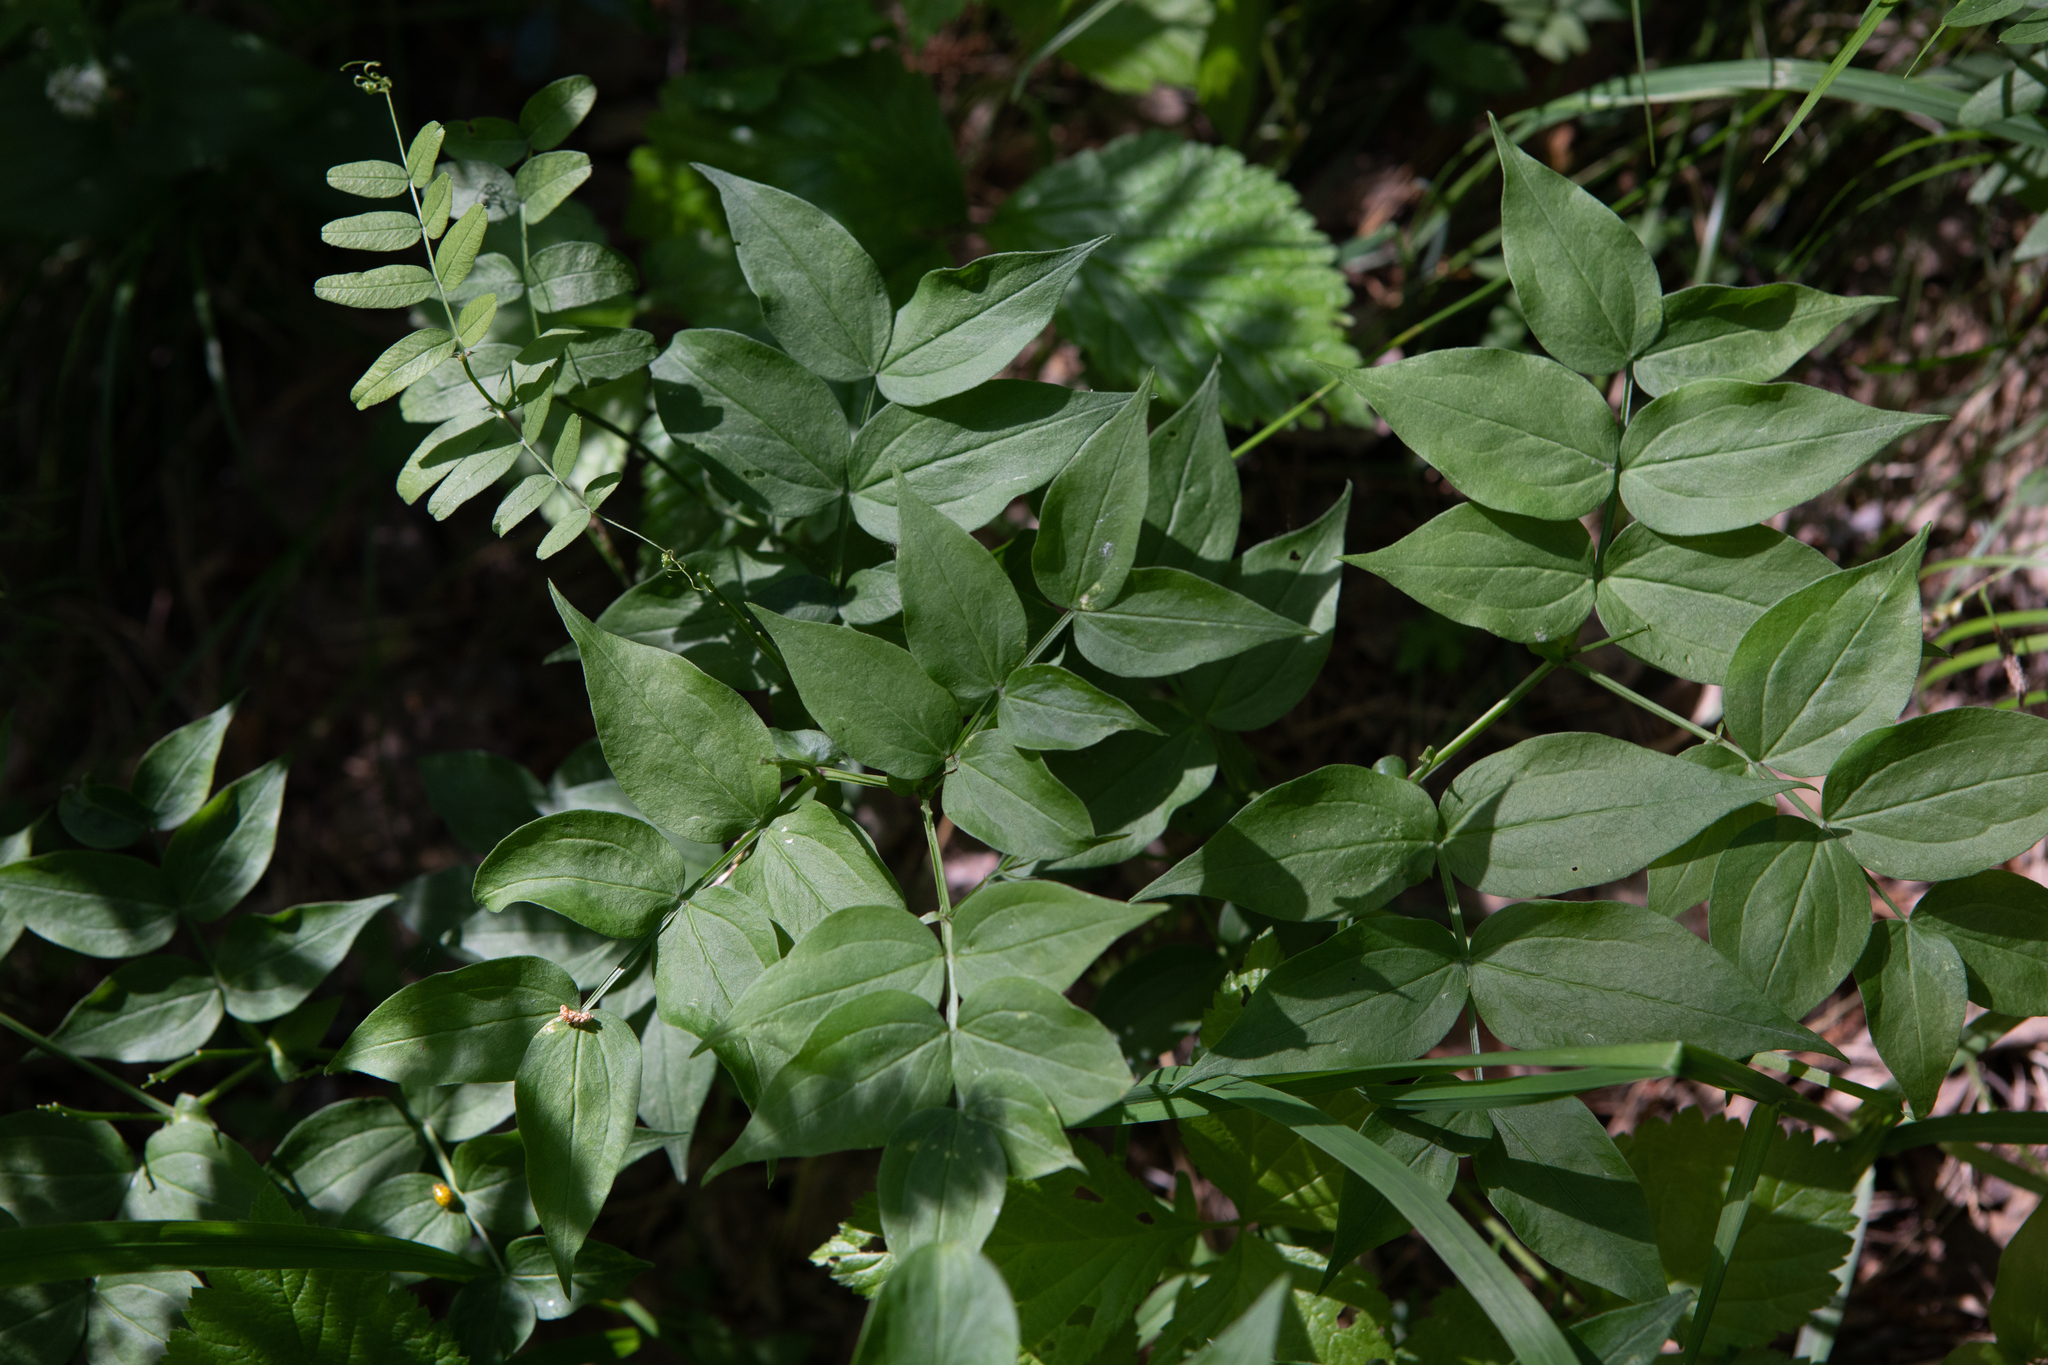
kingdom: Plantae
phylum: Tracheophyta
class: Magnoliopsida
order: Fabales
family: Fabaceae
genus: Lathyrus
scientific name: Lathyrus vernus
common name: Spring pea
